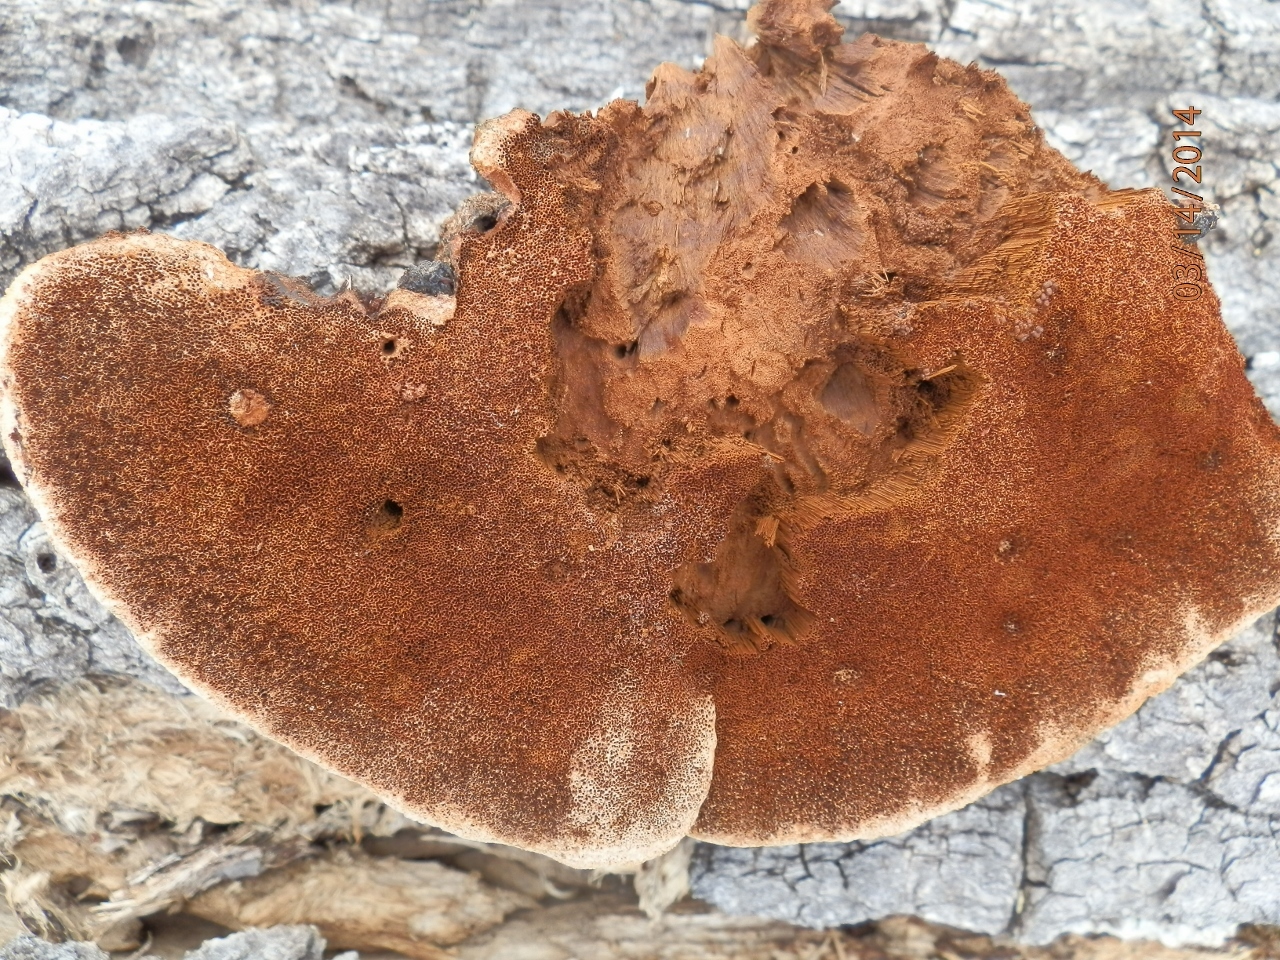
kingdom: Fungi
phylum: Basidiomycota
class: Agaricomycetes
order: Hymenochaetales
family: Hymenochaetaceae
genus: Inonotus
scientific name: Inonotus munzii
